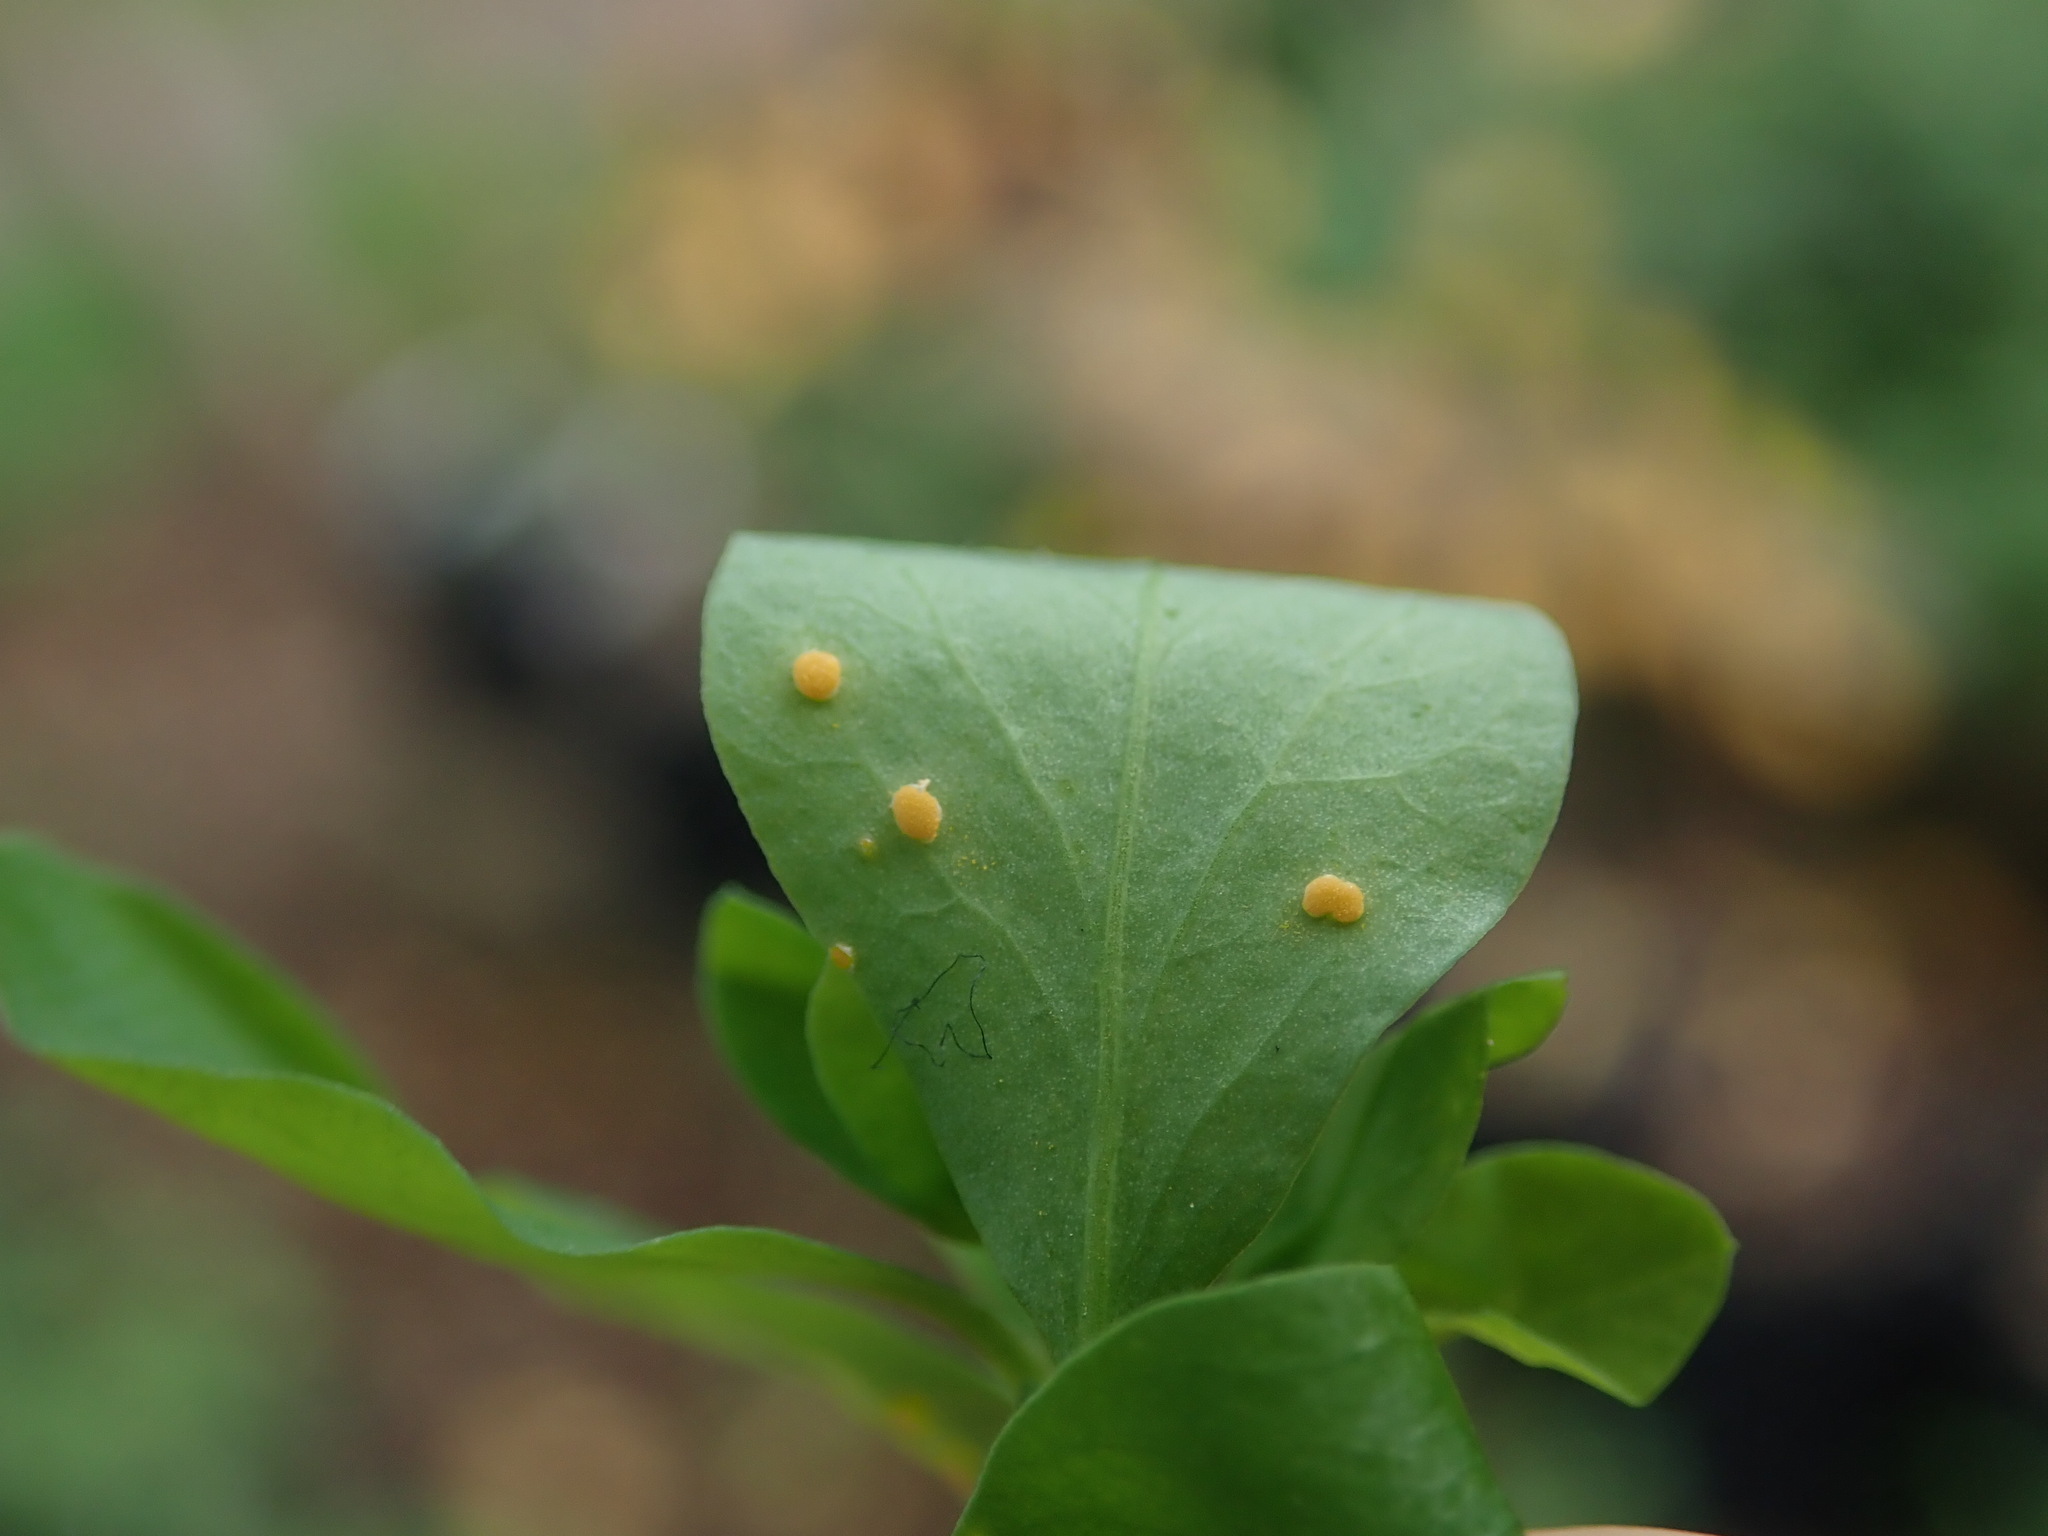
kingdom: Fungi
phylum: Basidiomycota
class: Pucciniomycetes
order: Pucciniales
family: Melampsoraceae
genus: Melampsora
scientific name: Melampsora euphorbiae
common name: Spurge rust
